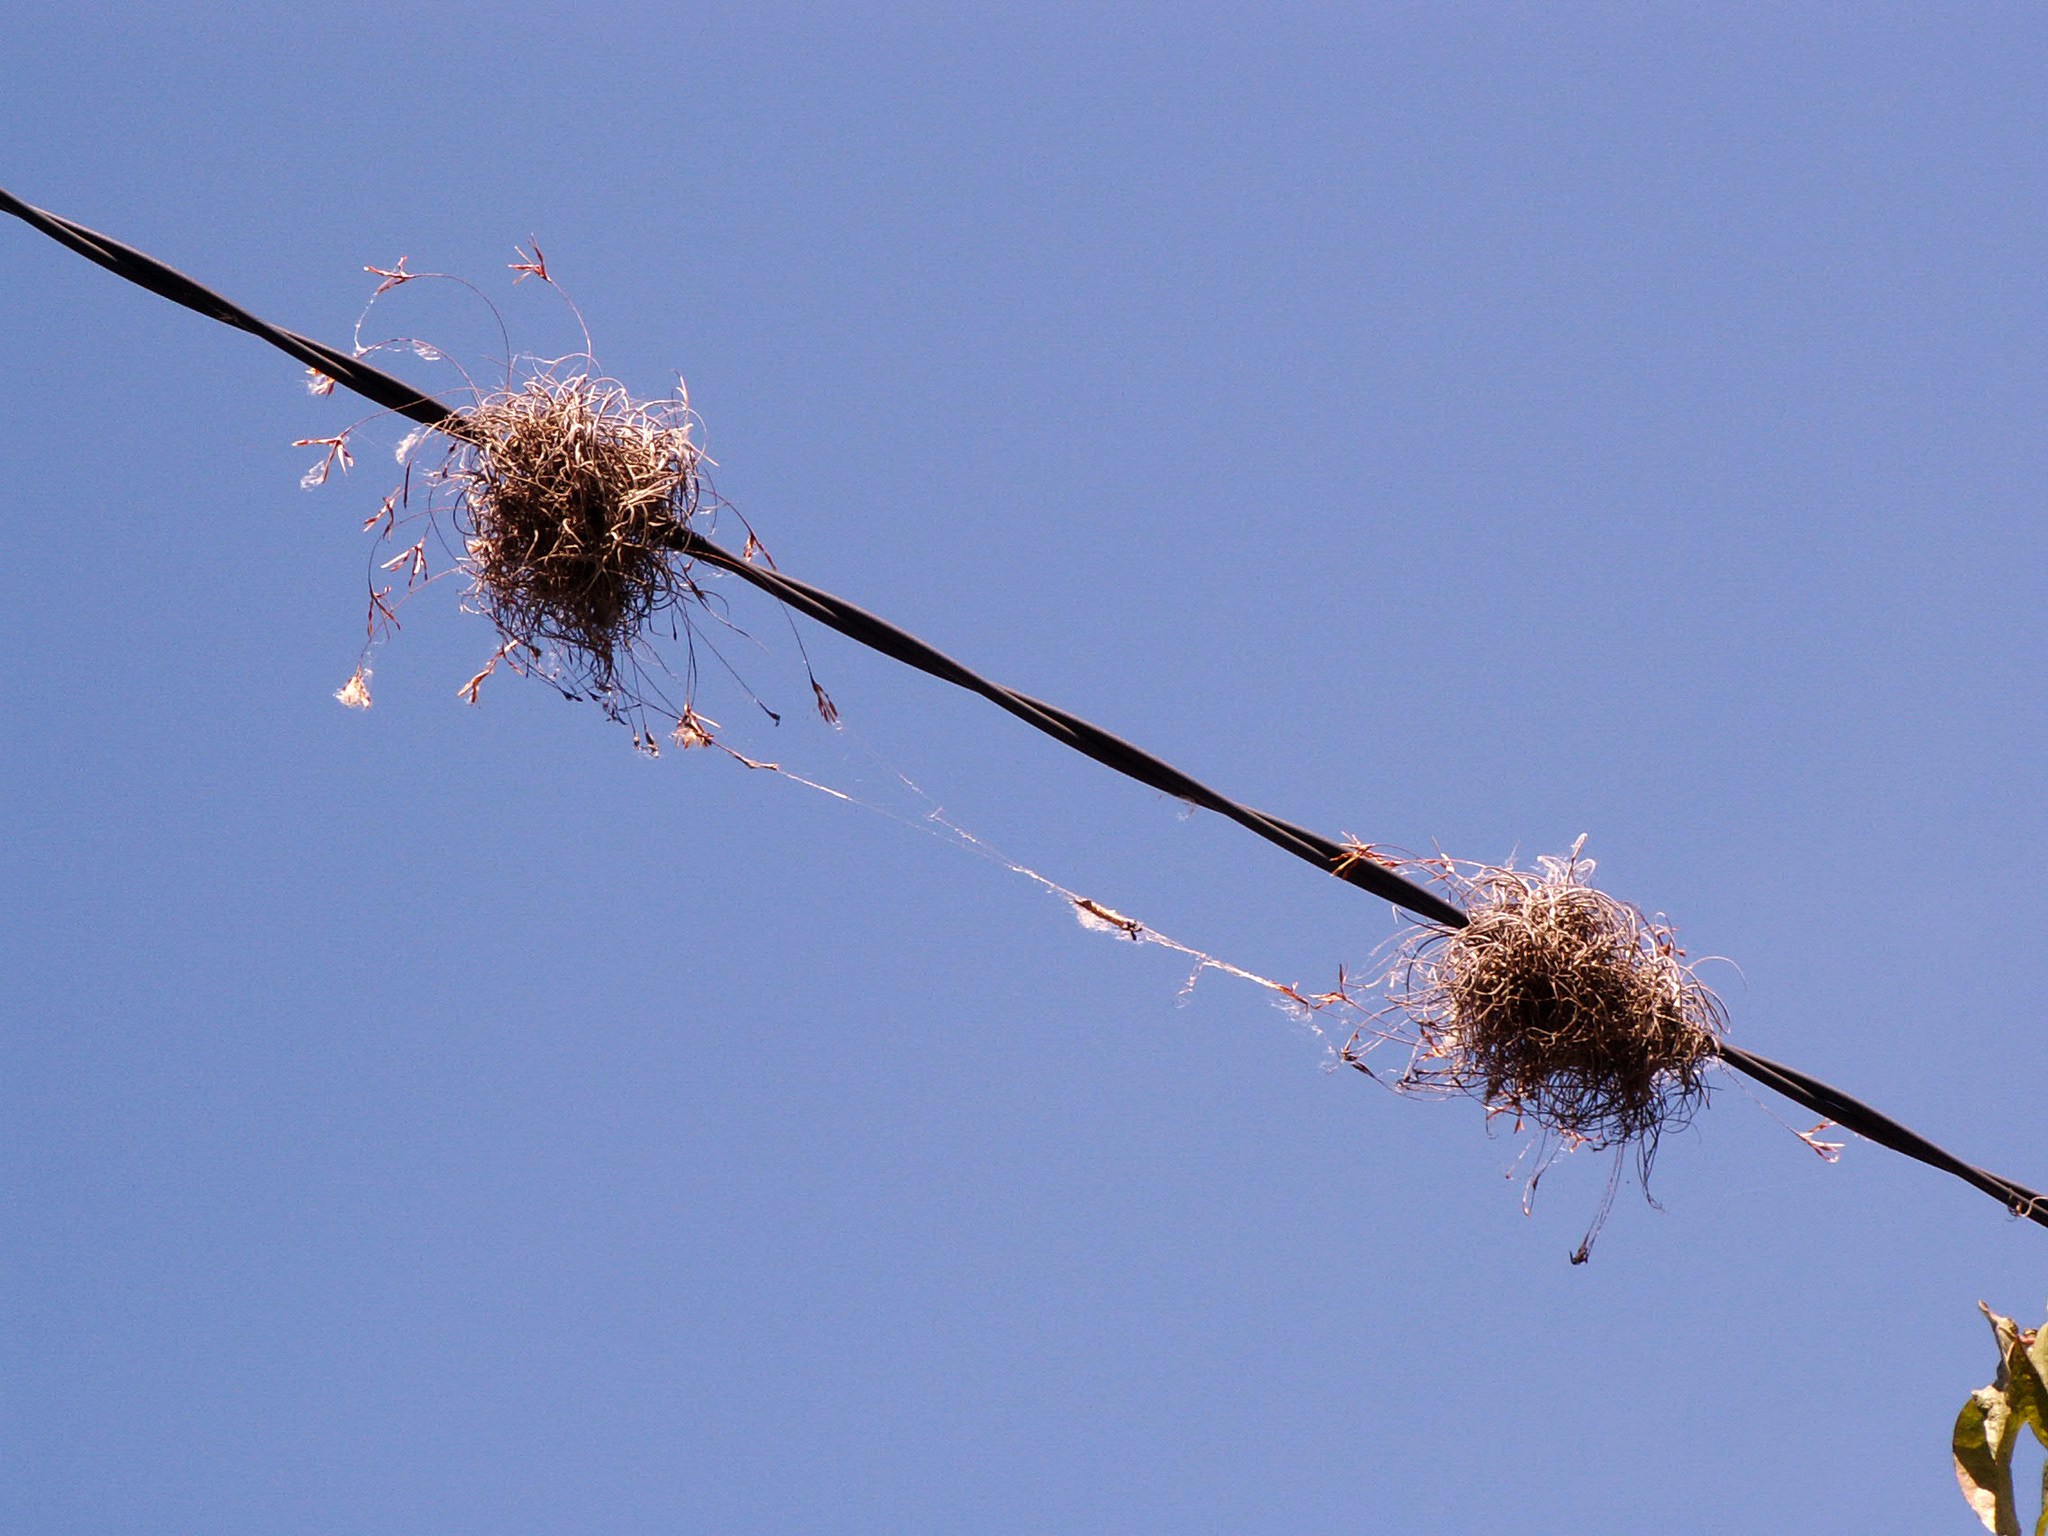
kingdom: Plantae
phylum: Tracheophyta
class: Liliopsida
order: Poales
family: Bromeliaceae
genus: Tillandsia
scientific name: Tillandsia recurvata
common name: Small ballmoss
